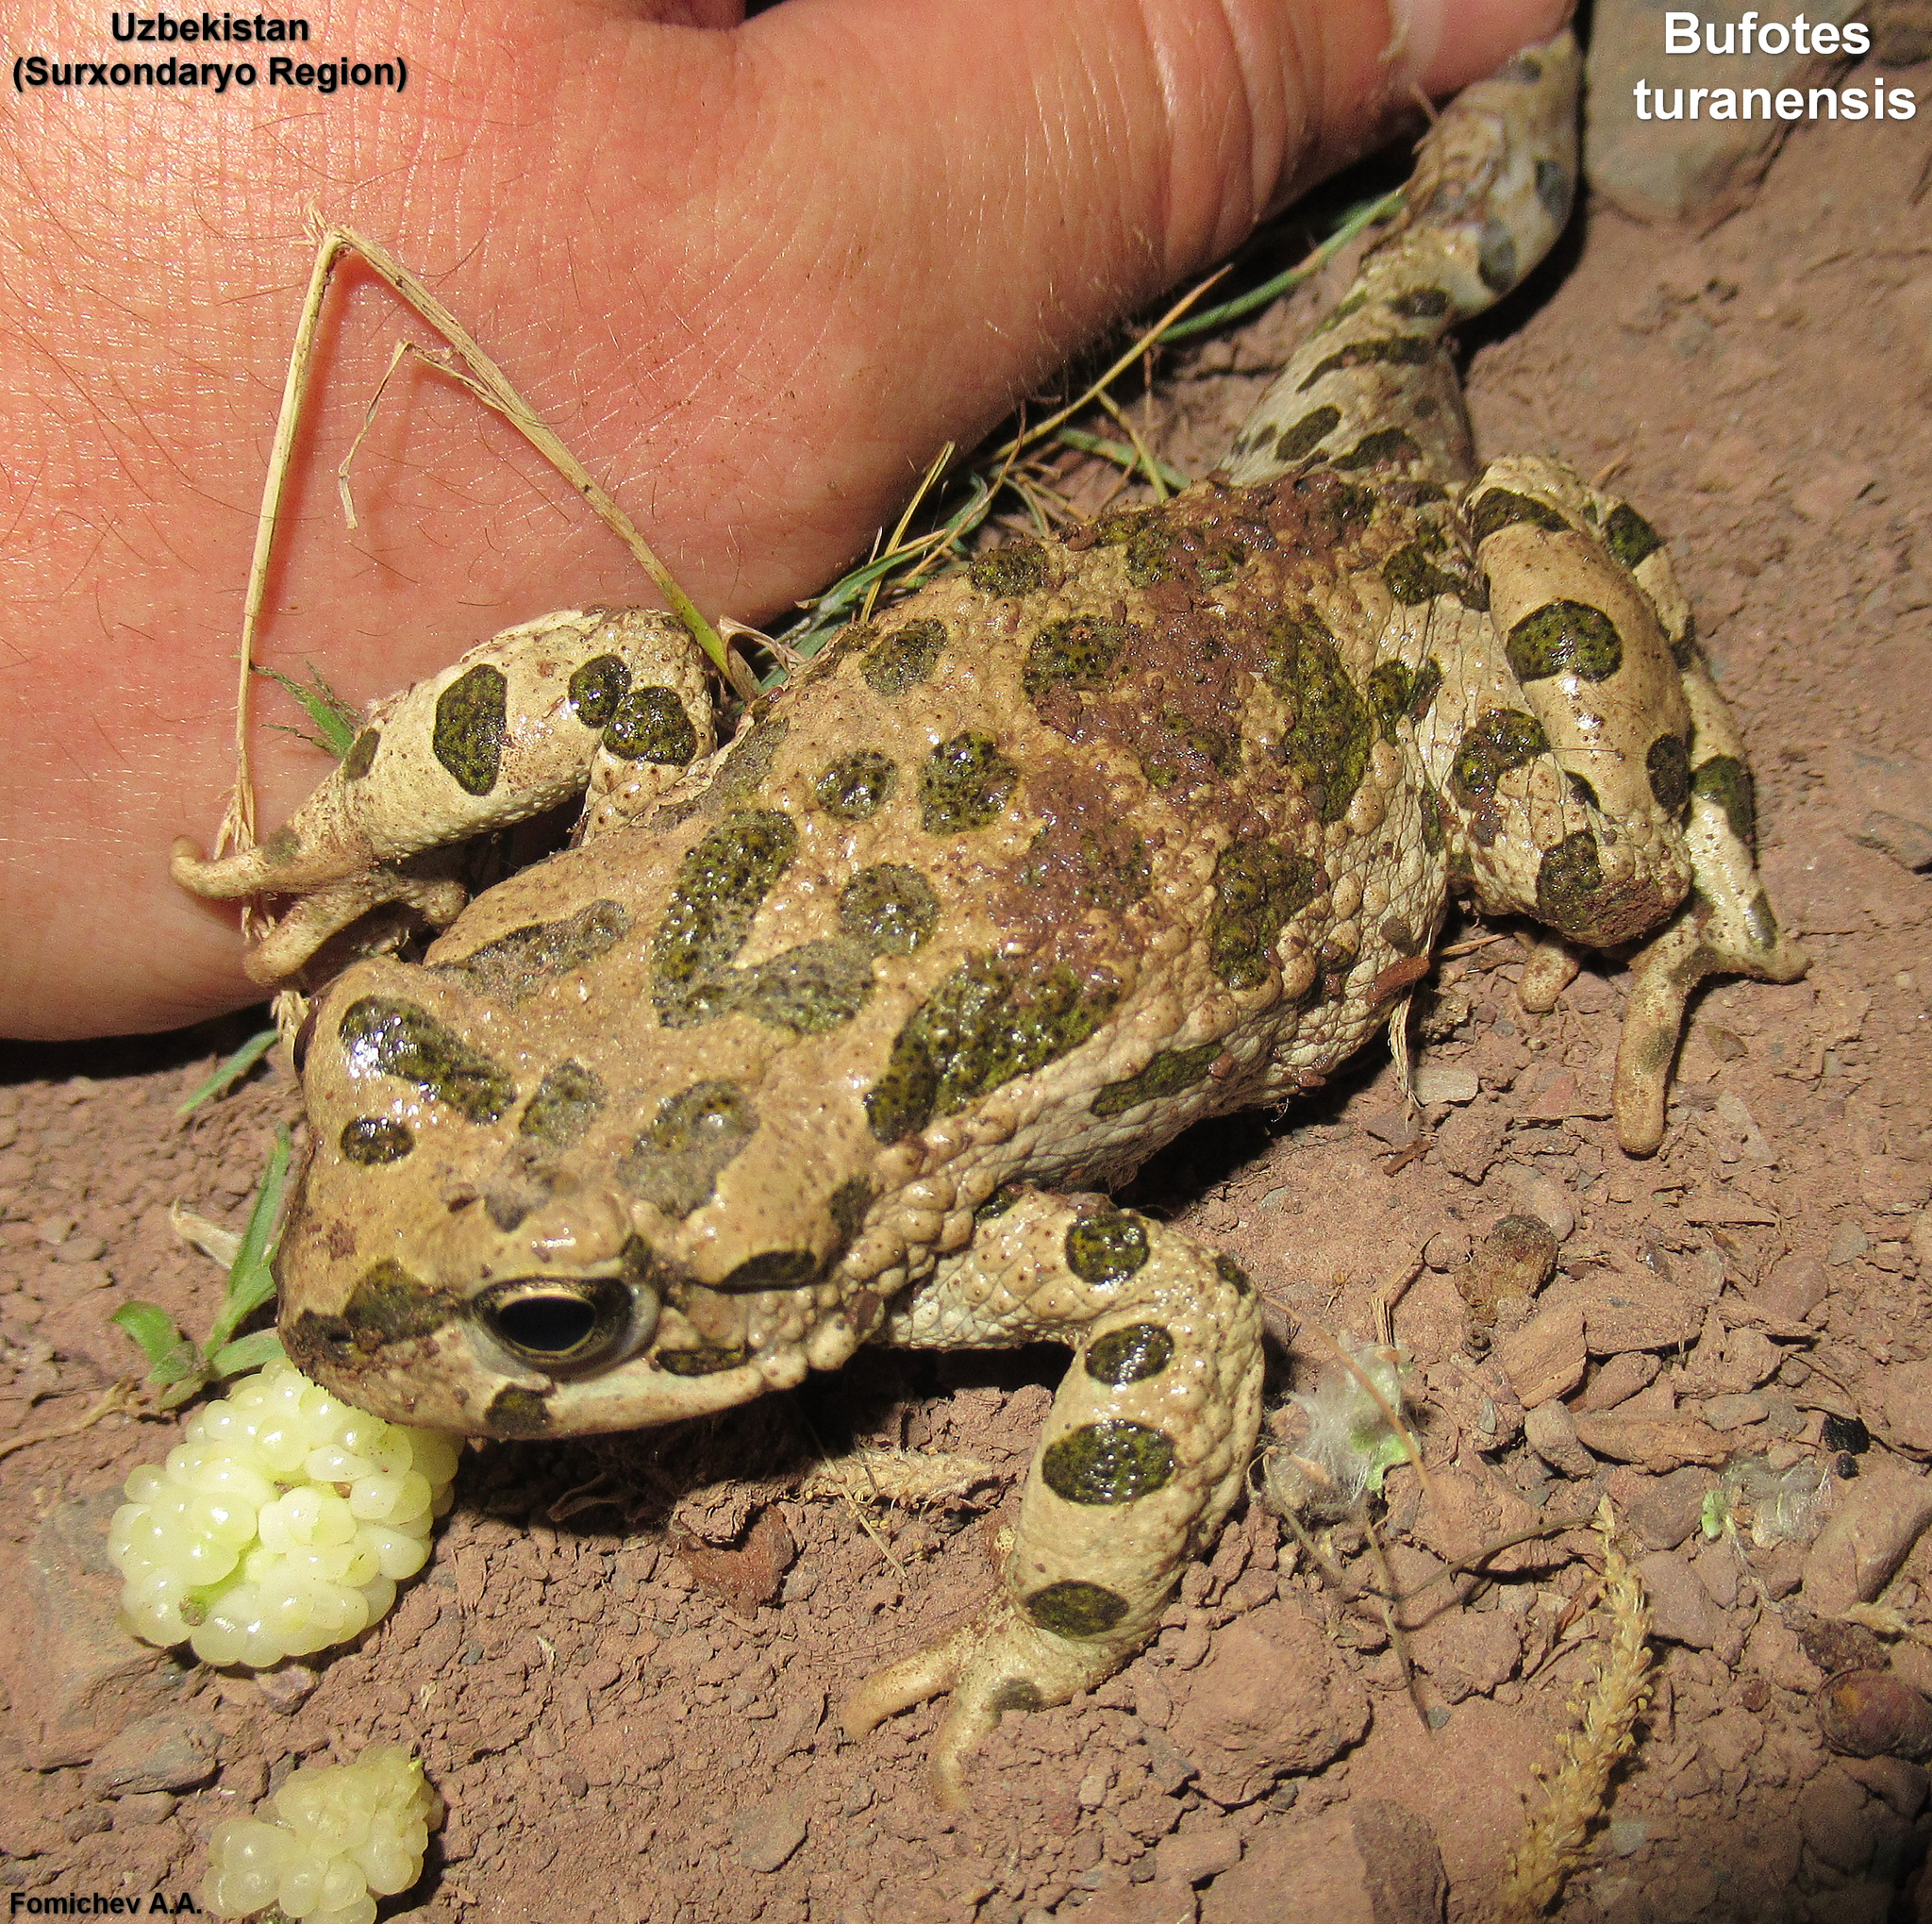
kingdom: Animalia
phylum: Chordata
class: Amphibia
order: Anura
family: Bufonidae
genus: Bufotes
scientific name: Bufotes turanensis
